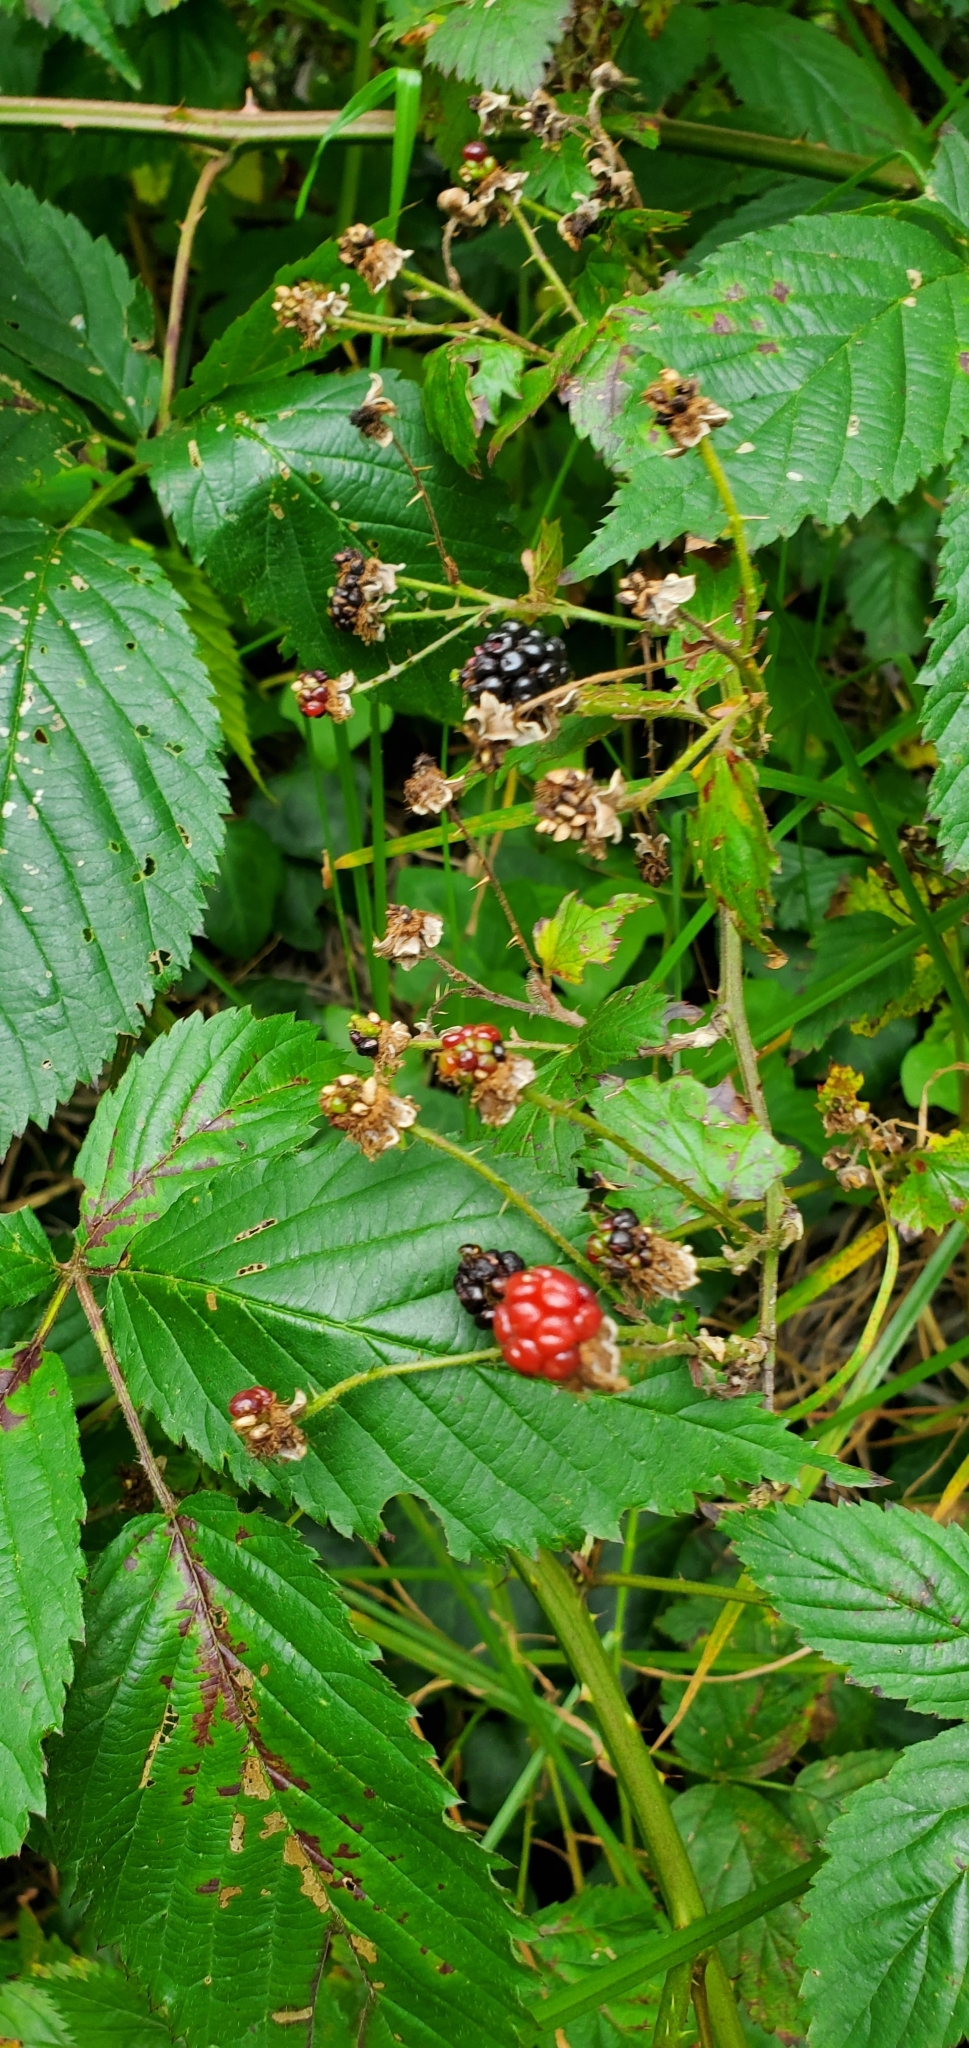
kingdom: Plantae
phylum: Tracheophyta
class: Magnoliopsida
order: Rosales
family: Rosaceae
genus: Rubus
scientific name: Rubus argutus
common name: Sawtooth blackberry
